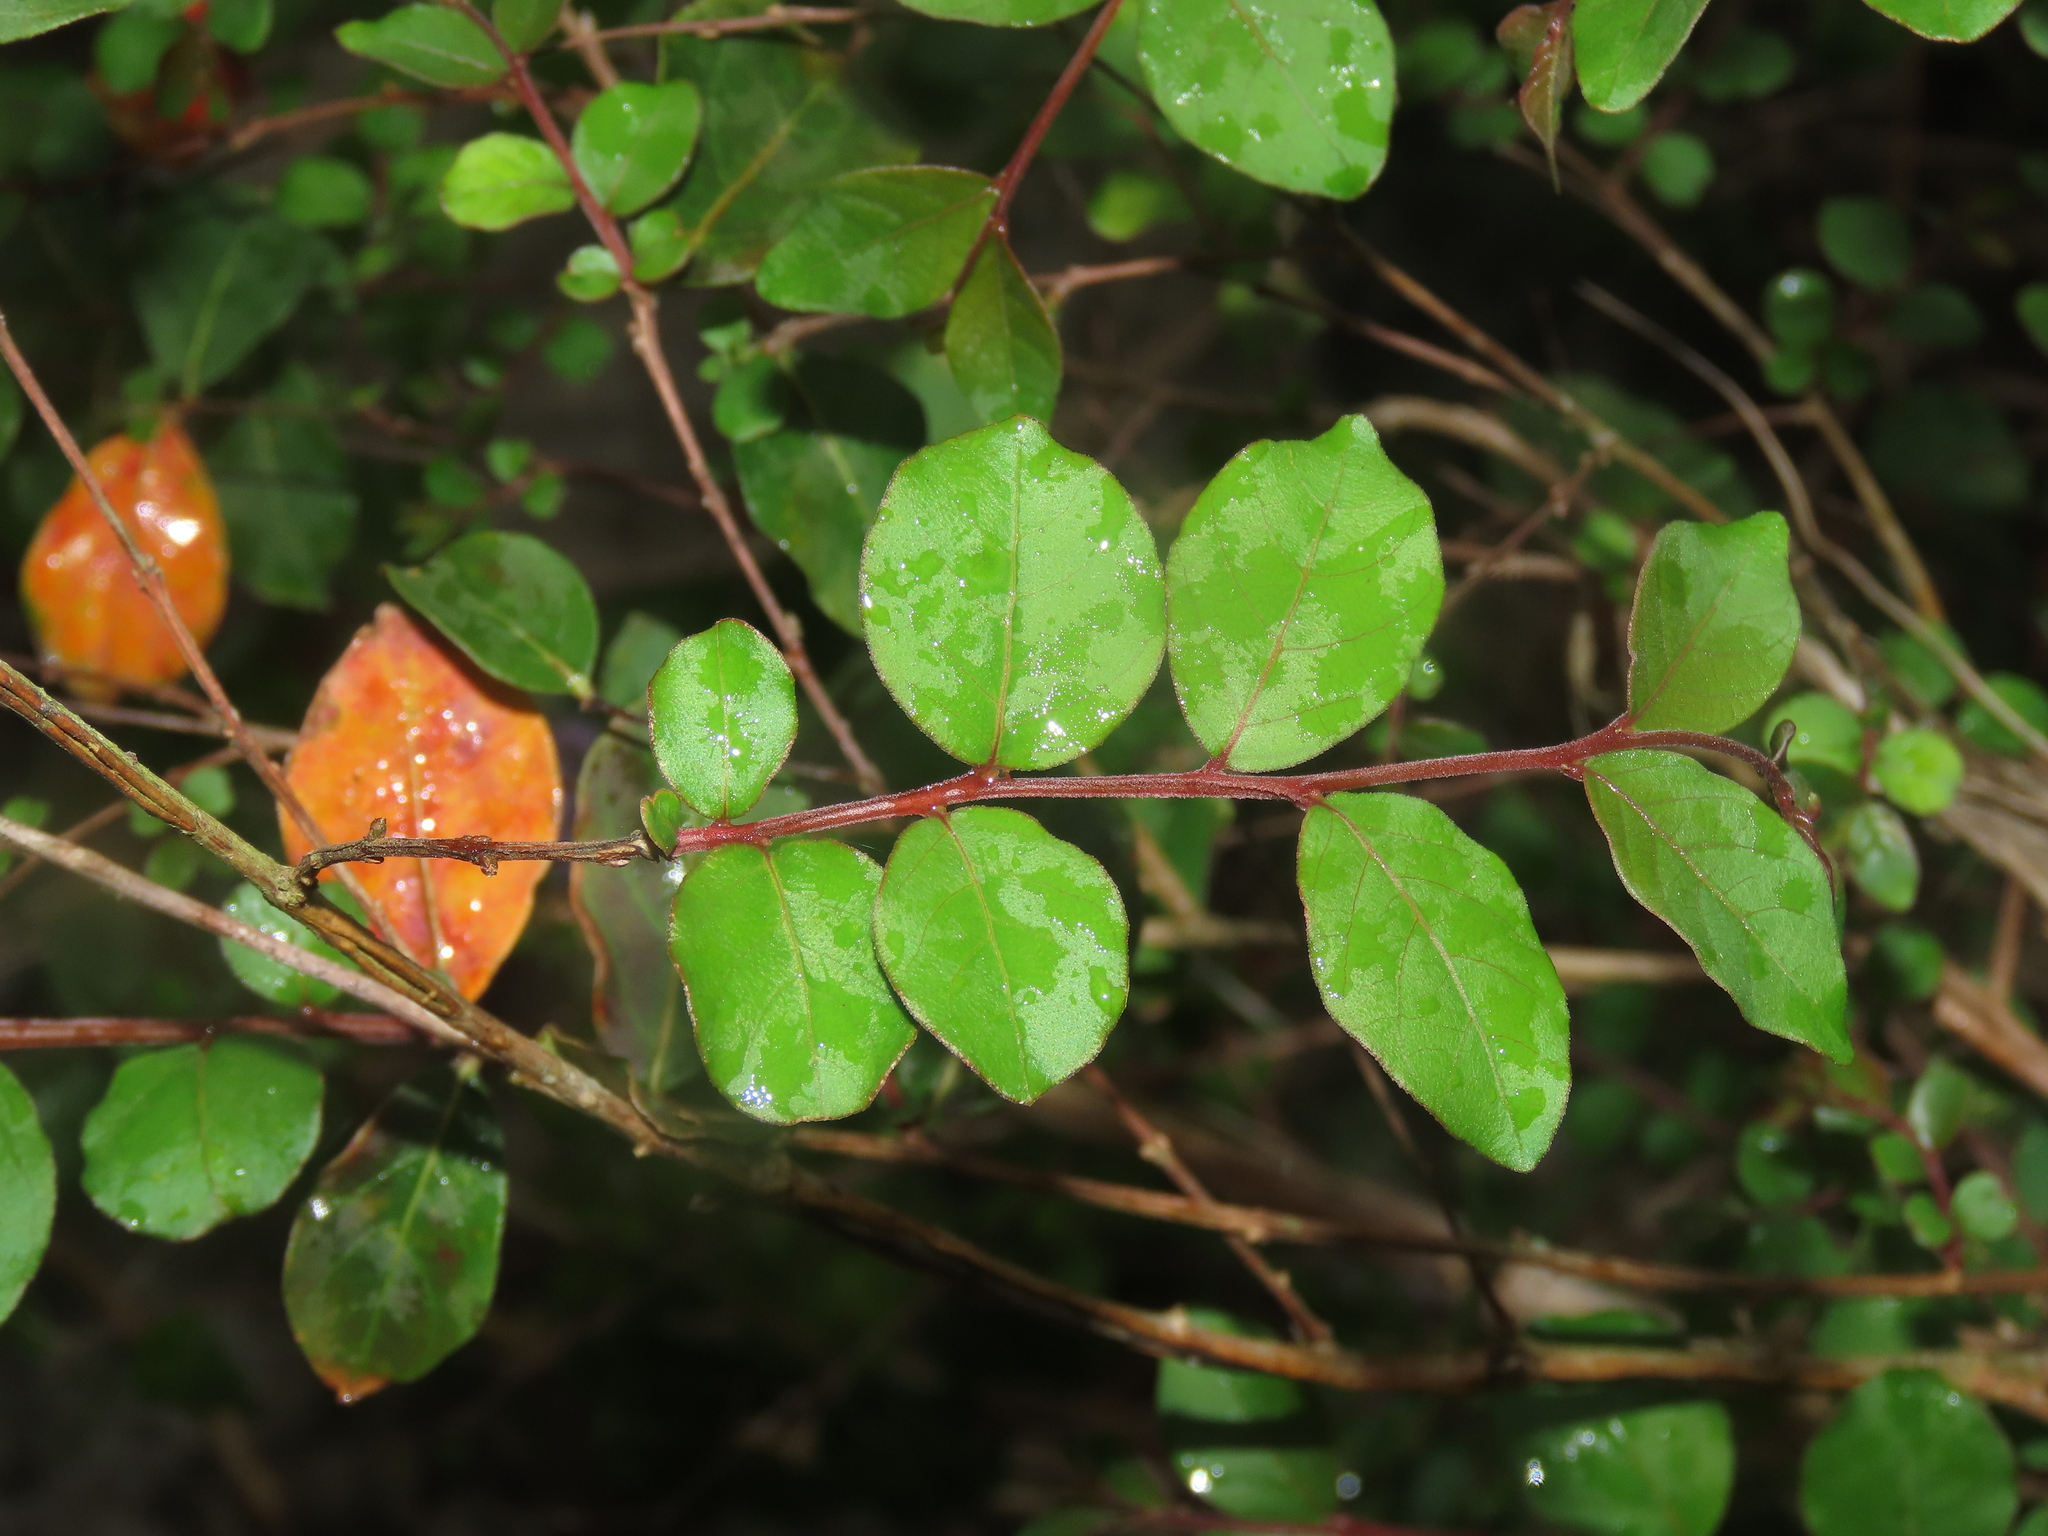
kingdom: Plantae
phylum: Tracheophyta
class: Magnoliopsida
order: Myrtales
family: Lythraceae
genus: Lagerstroemia
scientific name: Lagerstroemia subcostata
